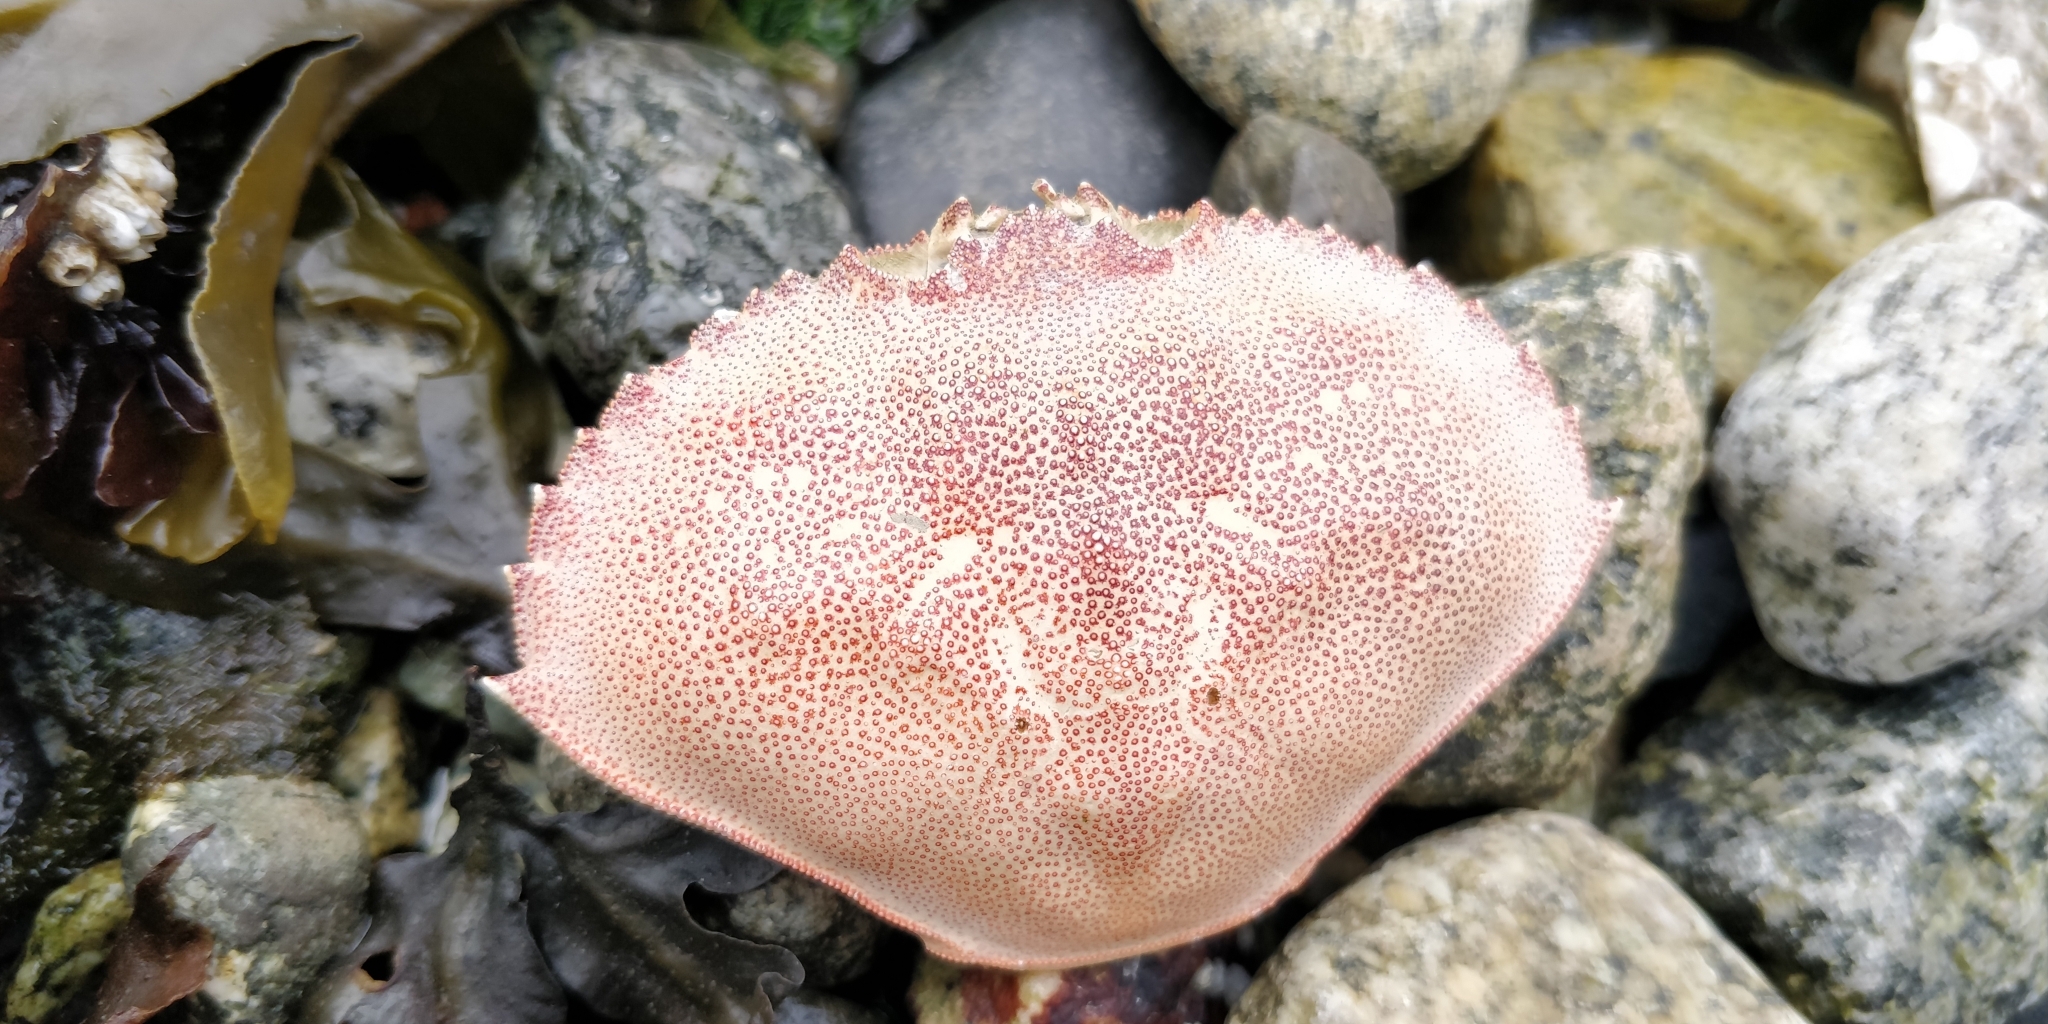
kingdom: Animalia
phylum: Arthropoda
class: Malacostraca
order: Decapoda
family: Cancridae
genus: Metacarcinus
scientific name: Metacarcinus magister
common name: Californian crab
